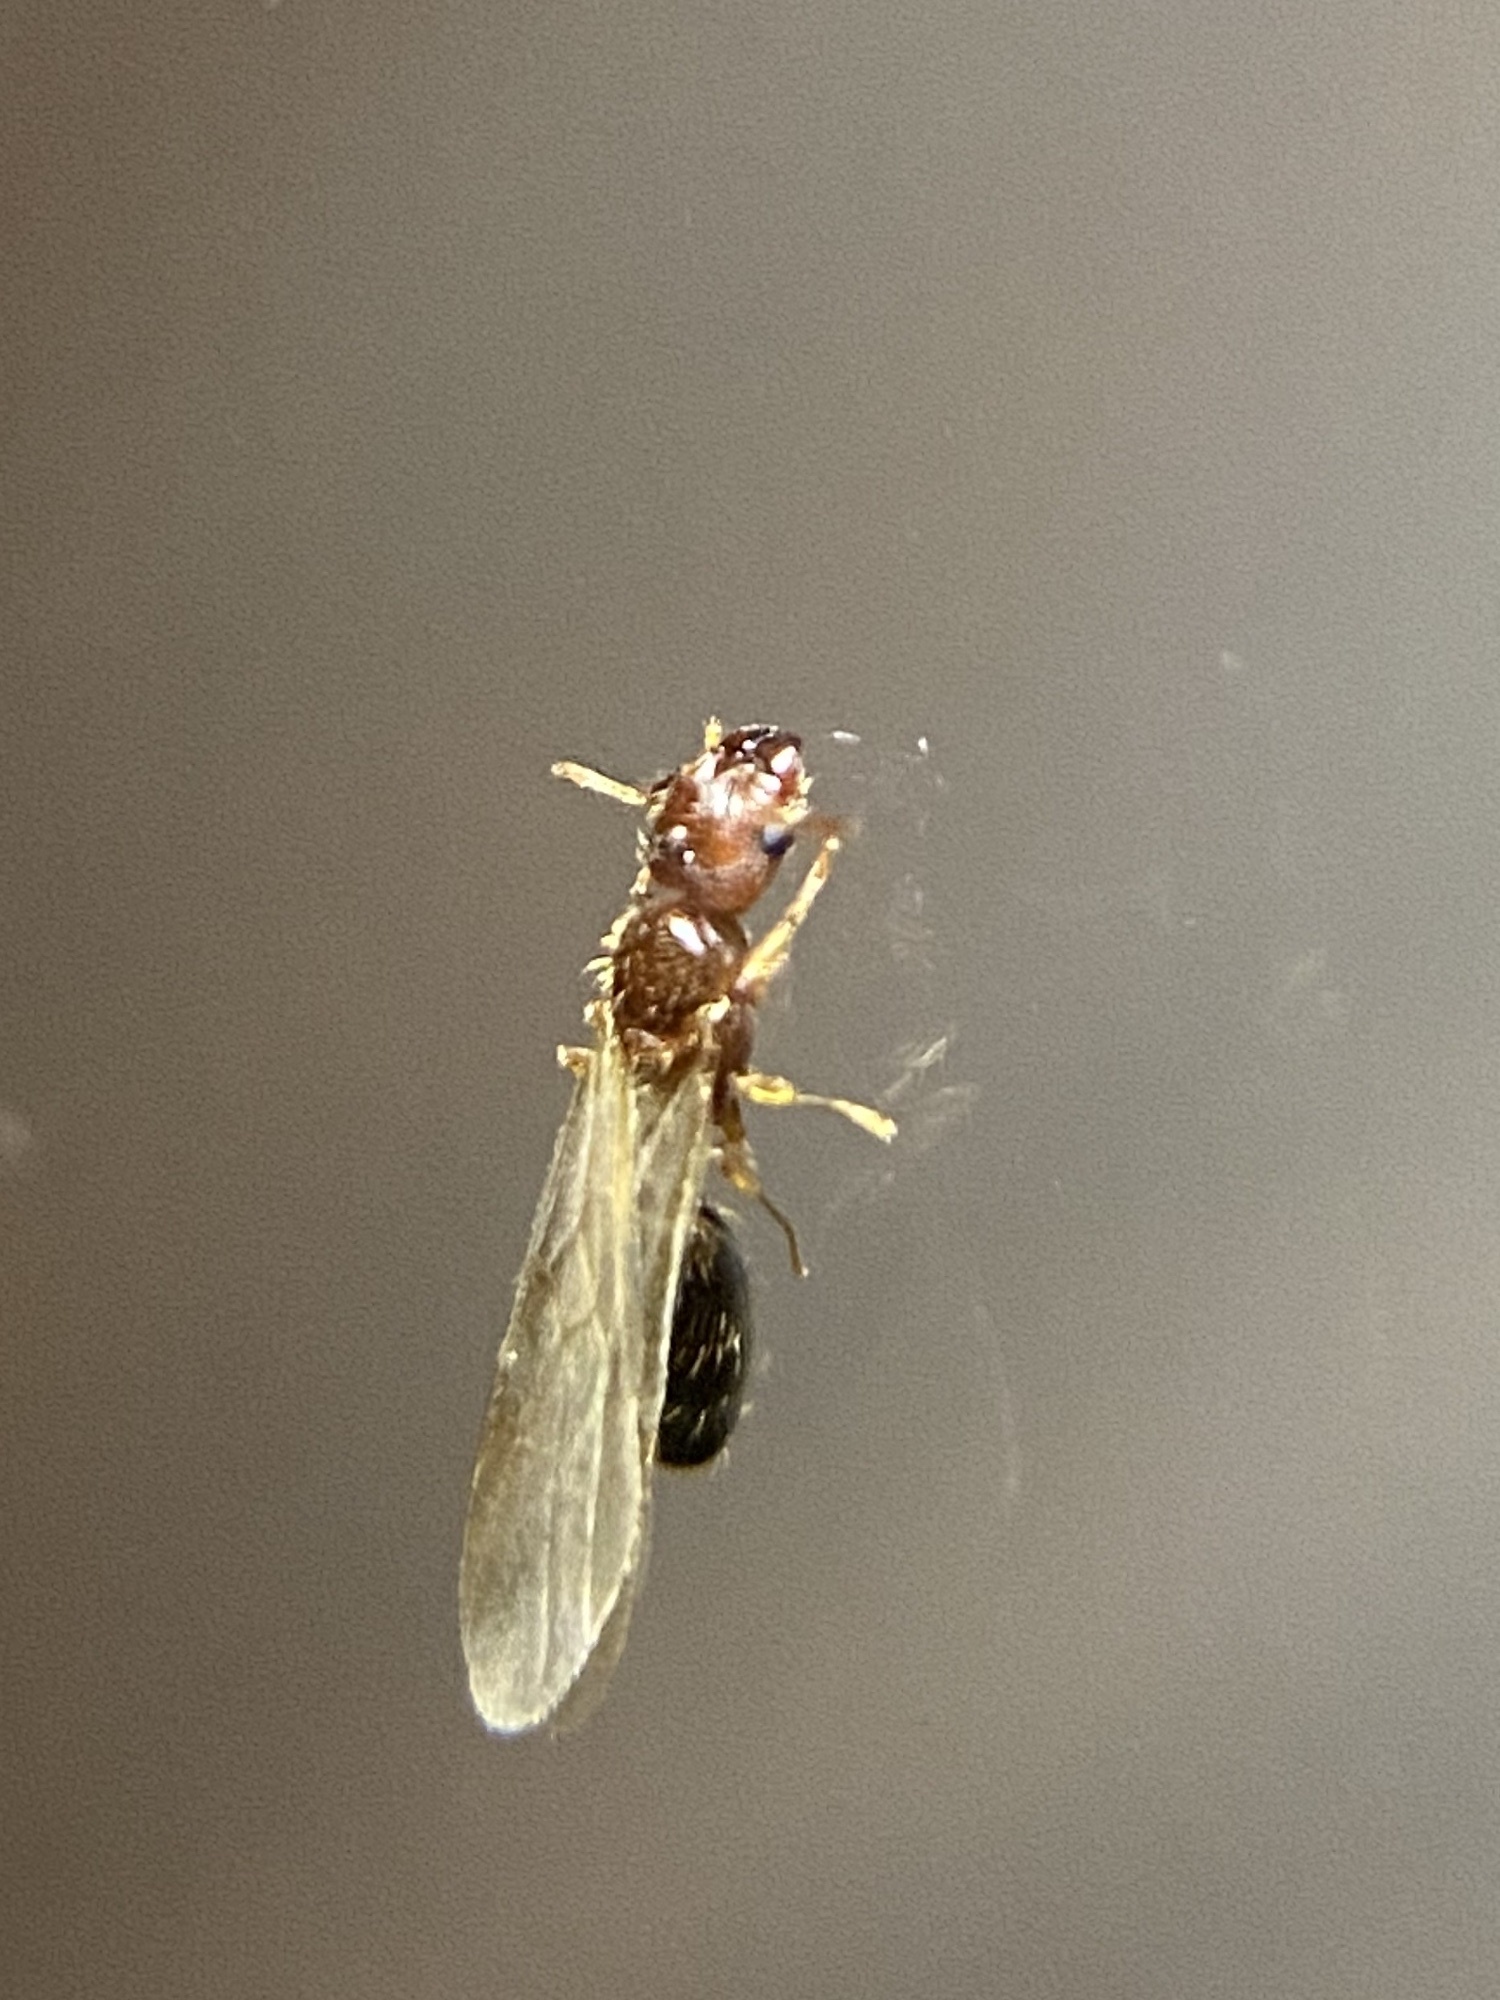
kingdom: Animalia
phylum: Arthropoda
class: Insecta
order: Hymenoptera
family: Formicidae
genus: Pheidole
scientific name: Pheidole parva
